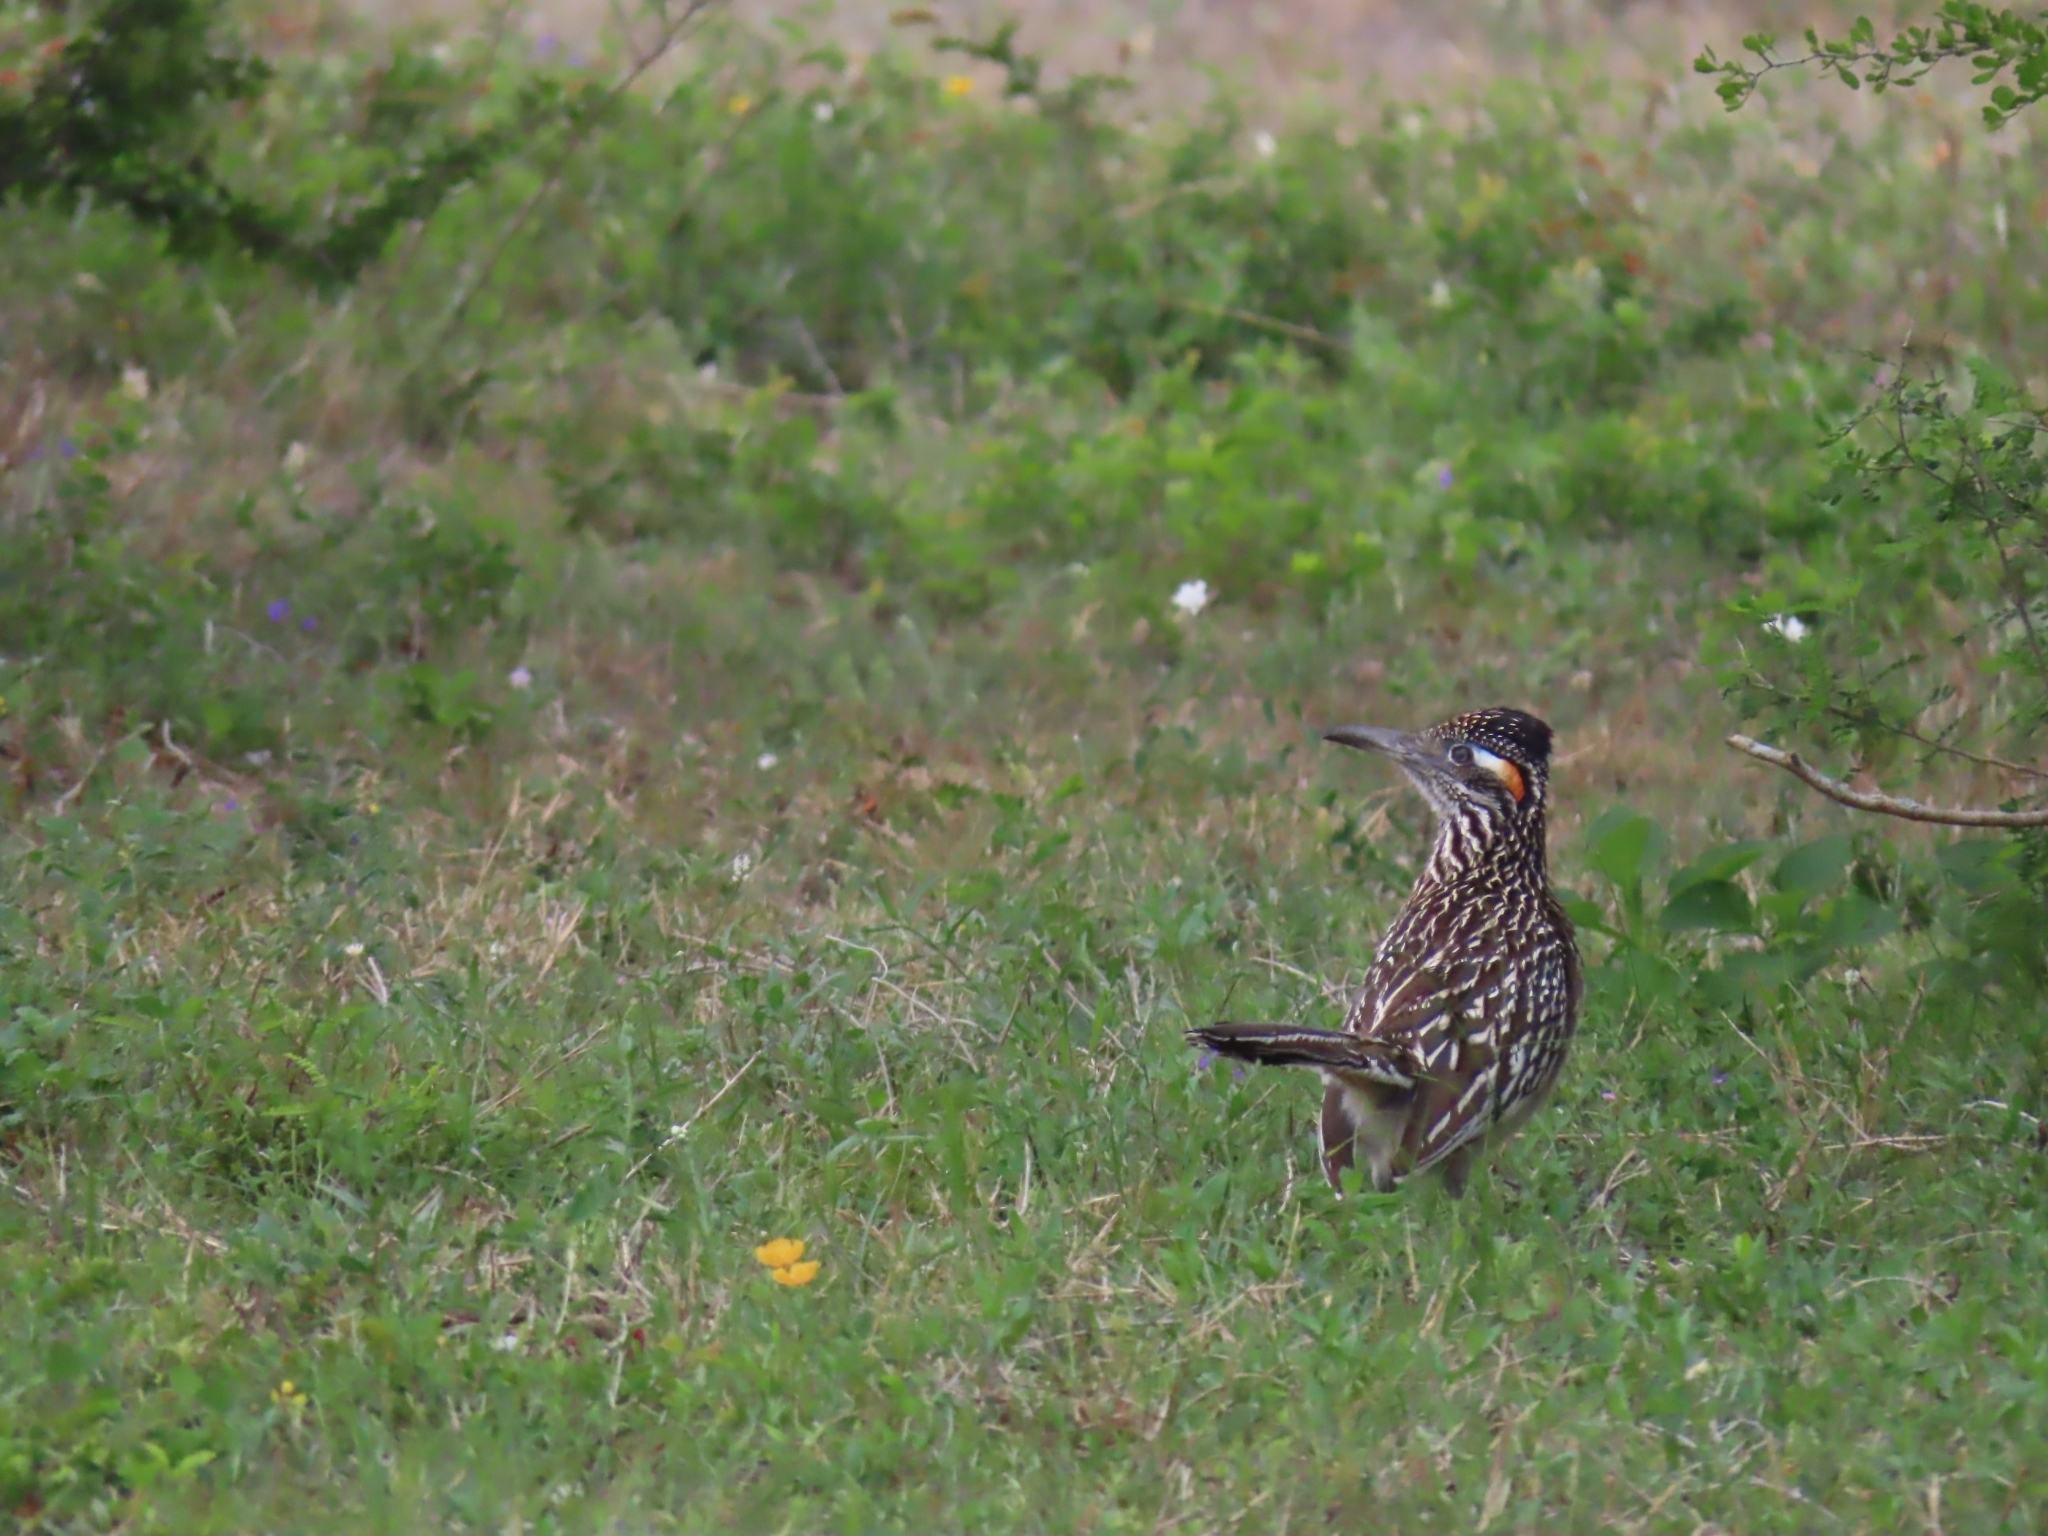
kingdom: Animalia
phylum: Chordata
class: Aves
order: Cuculiformes
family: Cuculidae
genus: Geococcyx
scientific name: Geococcyx californianus
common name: Greater roadrunner
